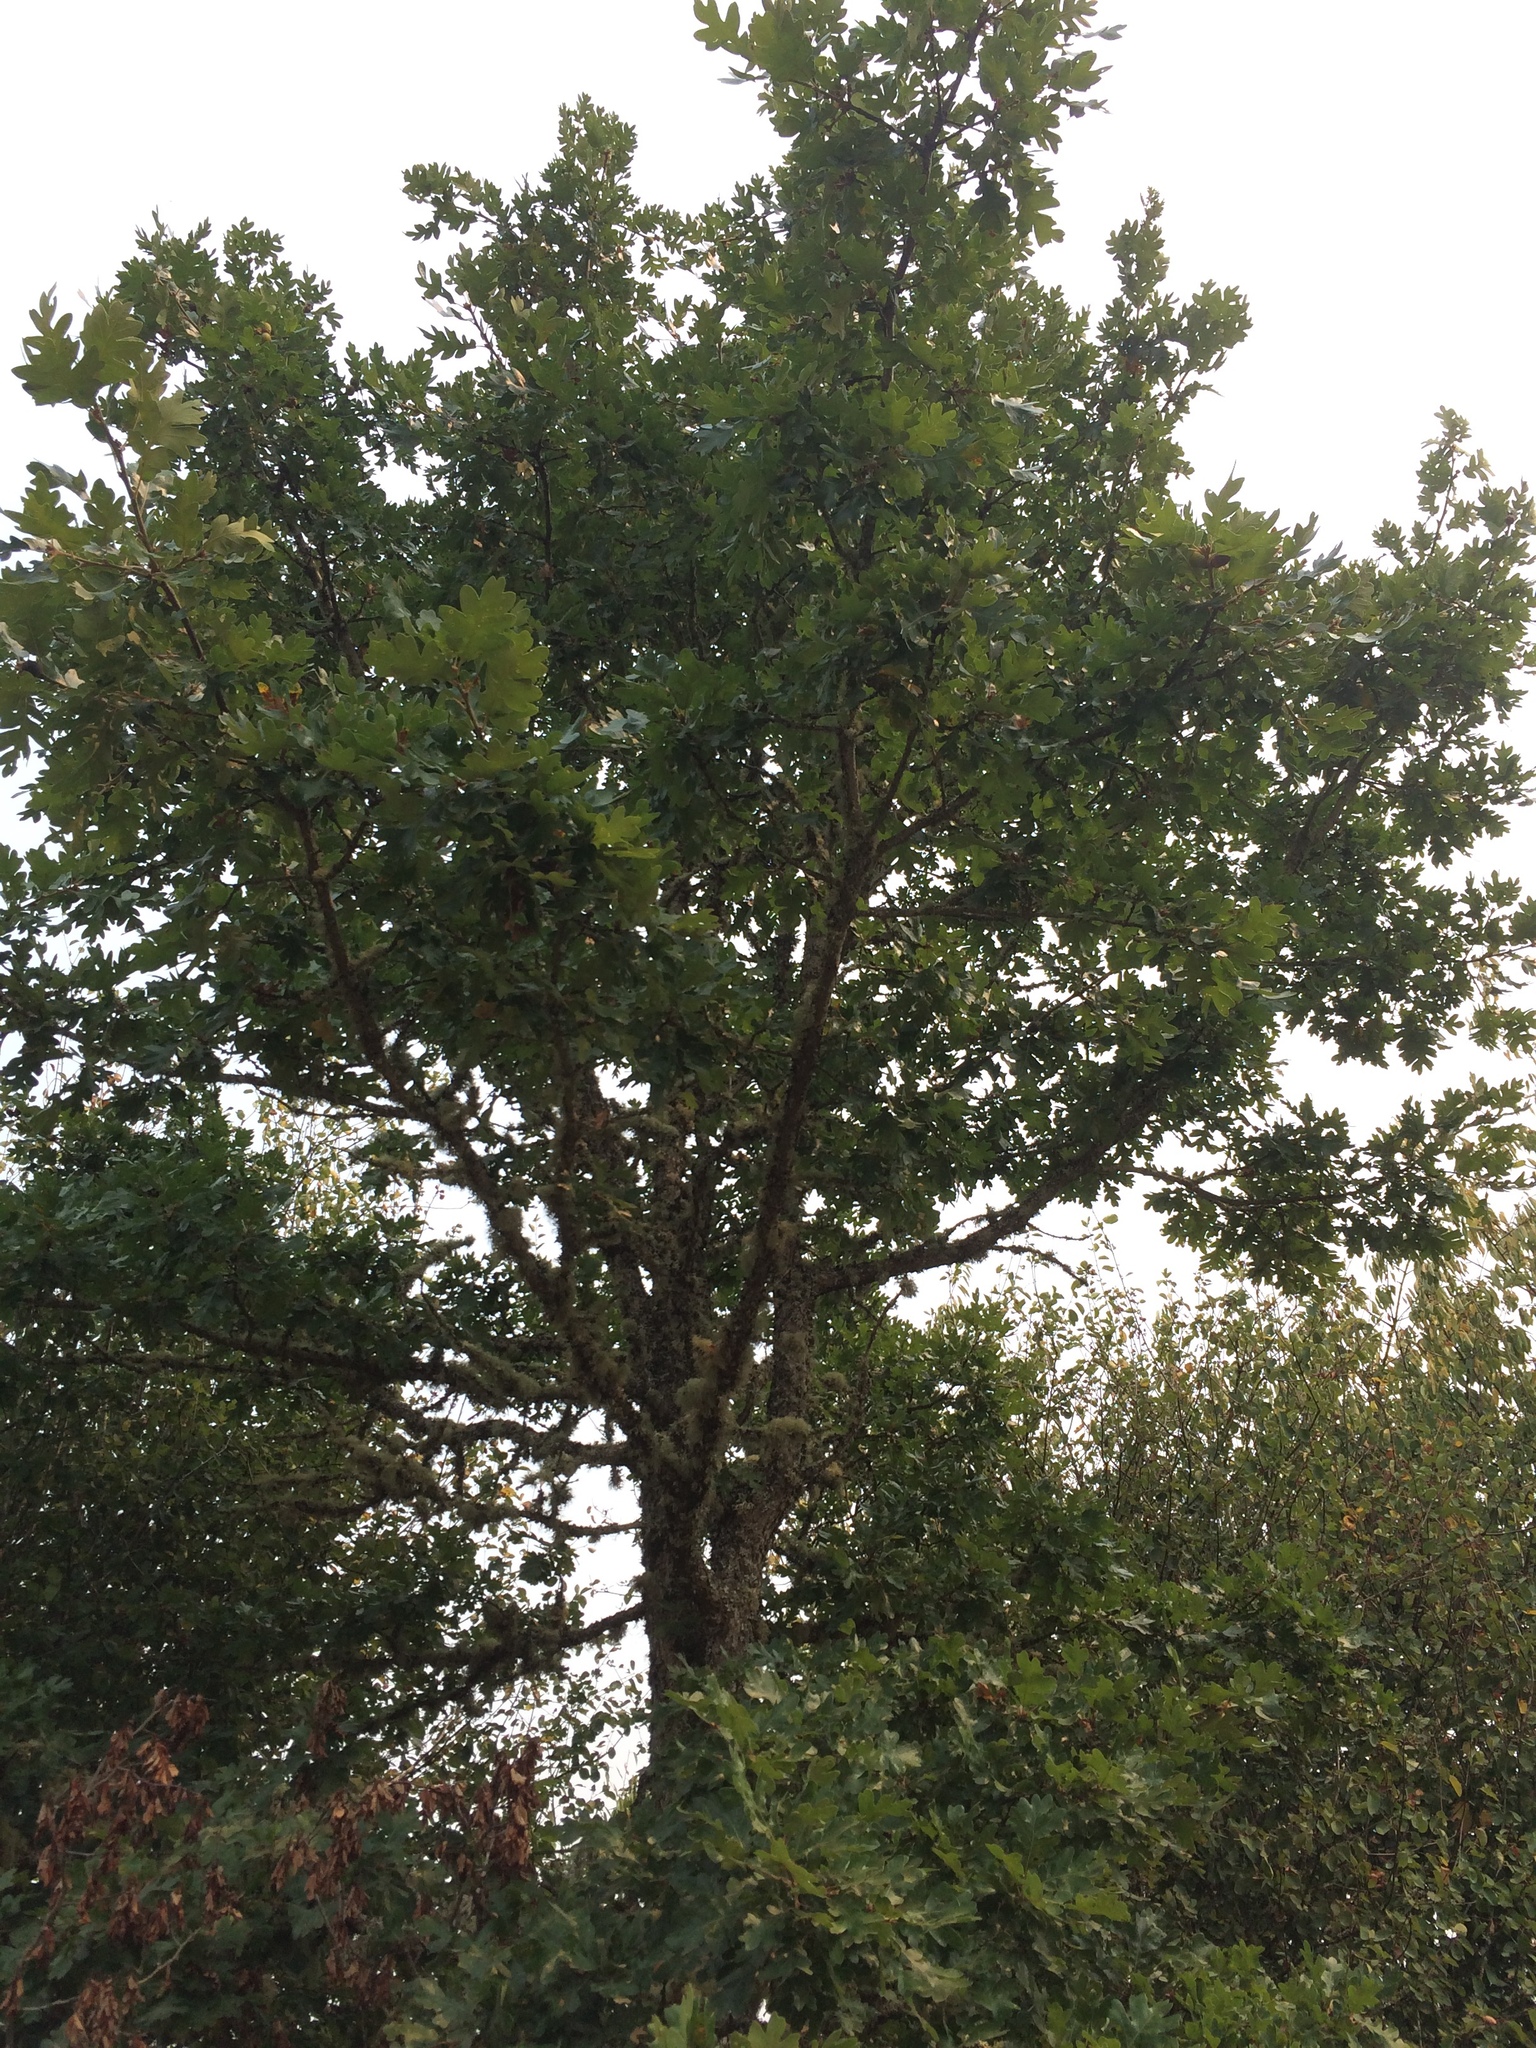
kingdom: Plantae
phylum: Tracheophyta
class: Magnoliopsida
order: Fagales
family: Fagaceae
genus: Quercus
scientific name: Quercus garryana
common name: Garry oak
